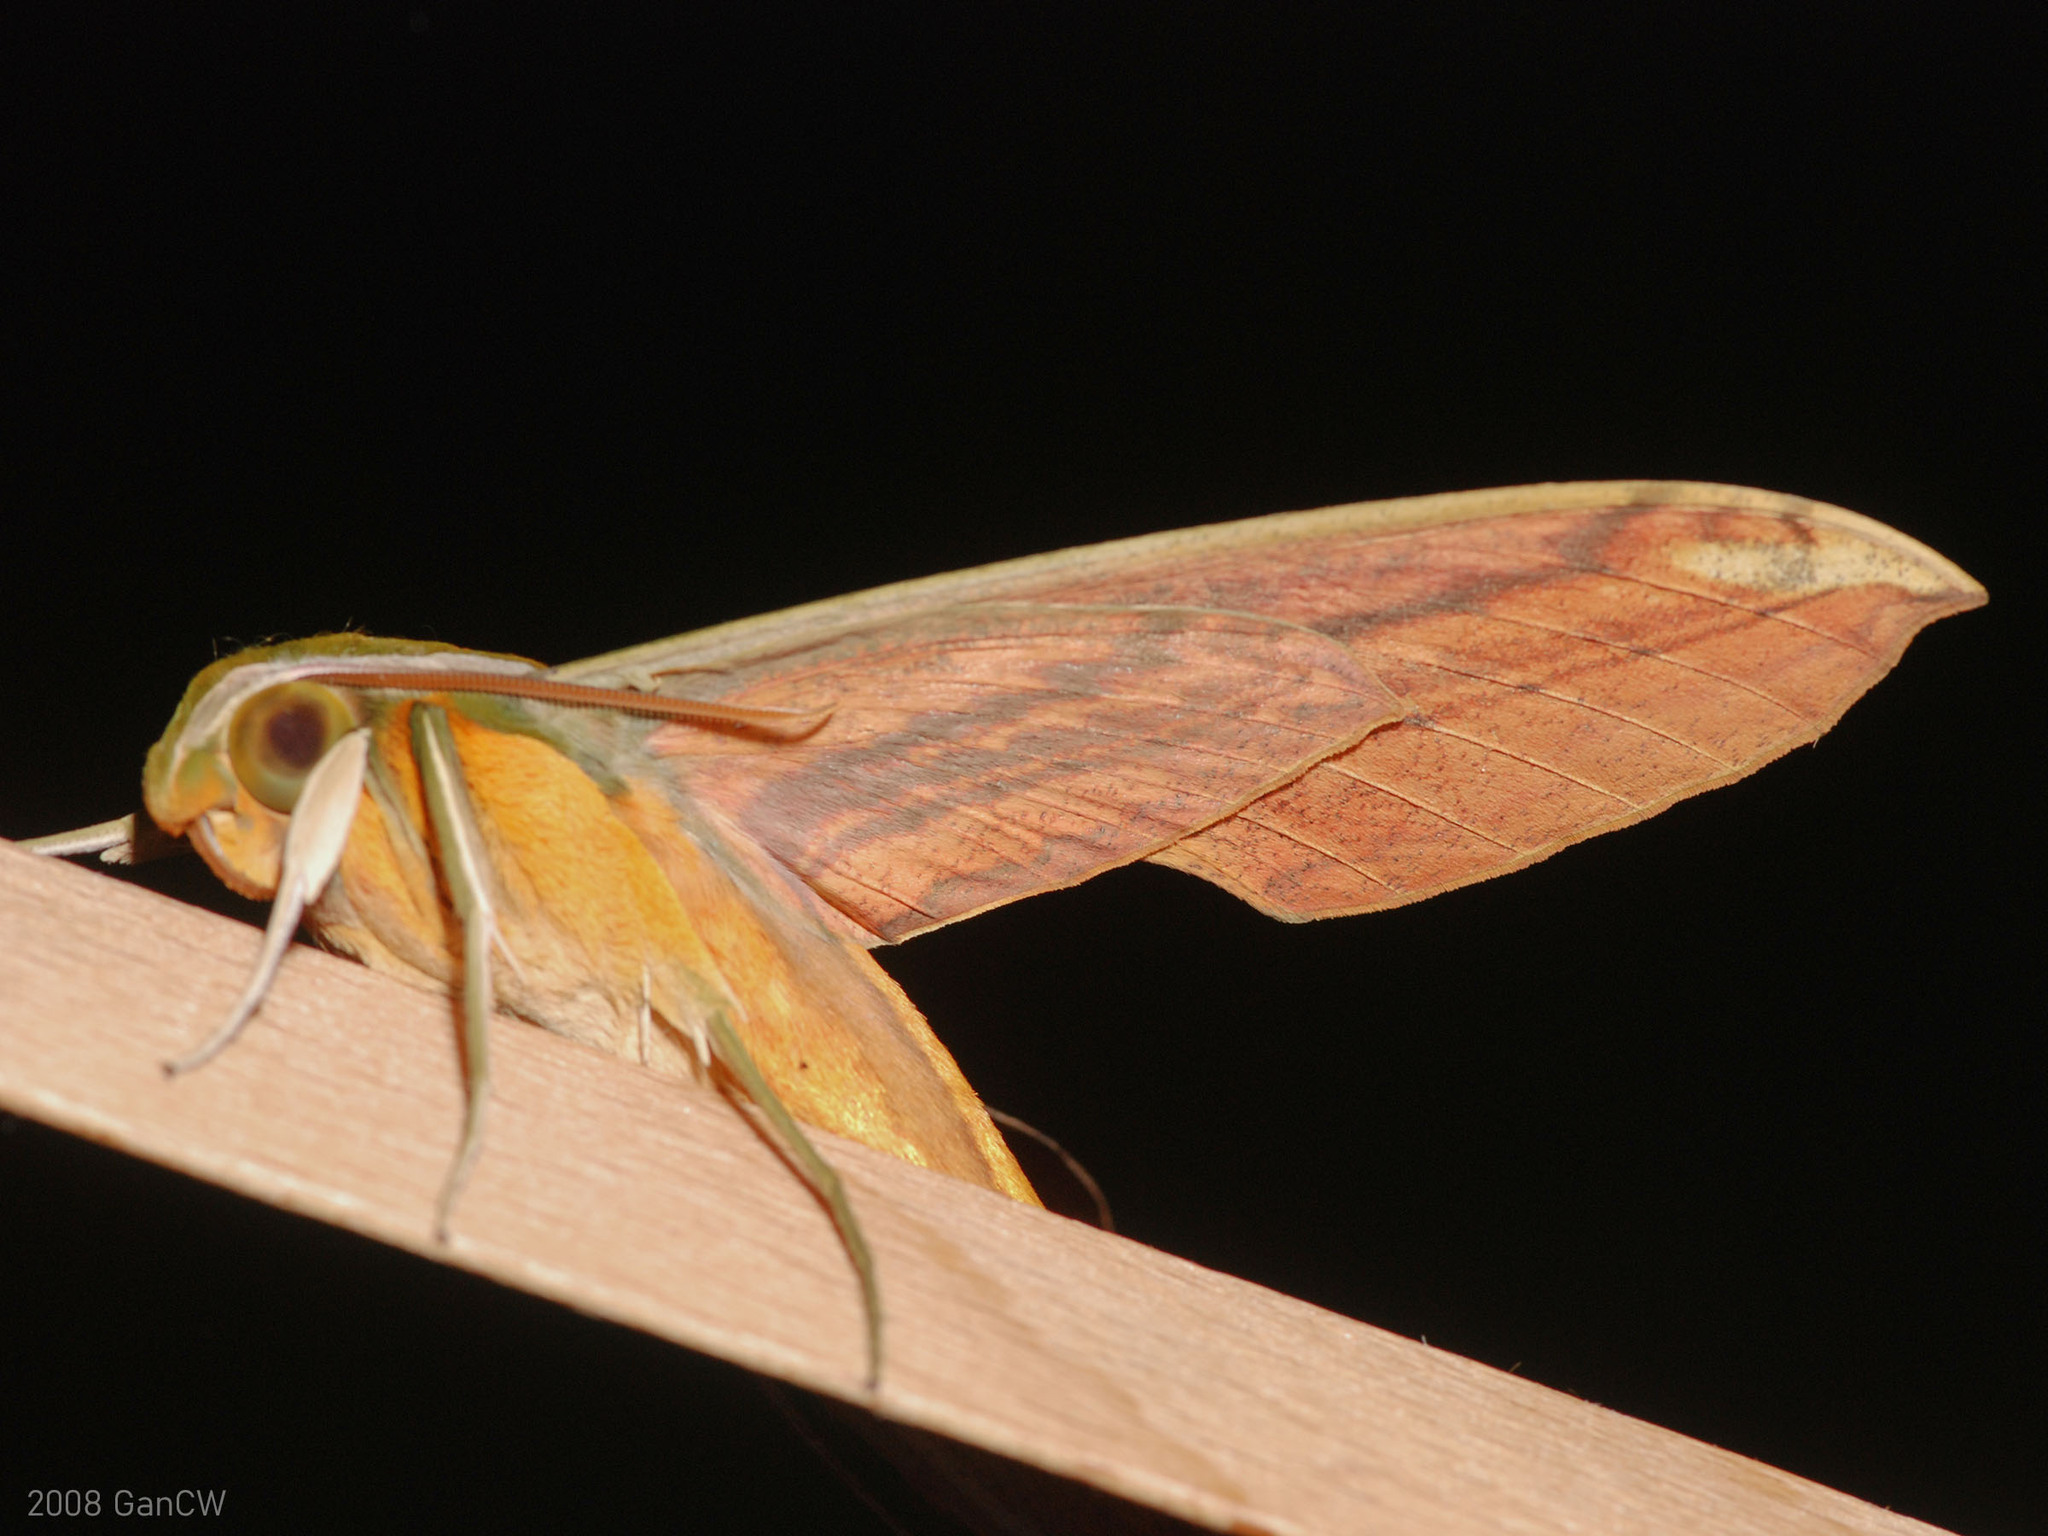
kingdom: Animalia
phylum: Arthropoda
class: Insecta
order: Lepidoptera
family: Sphingidae
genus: Theretra
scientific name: Theretra nessus
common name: Yam hawk moth
